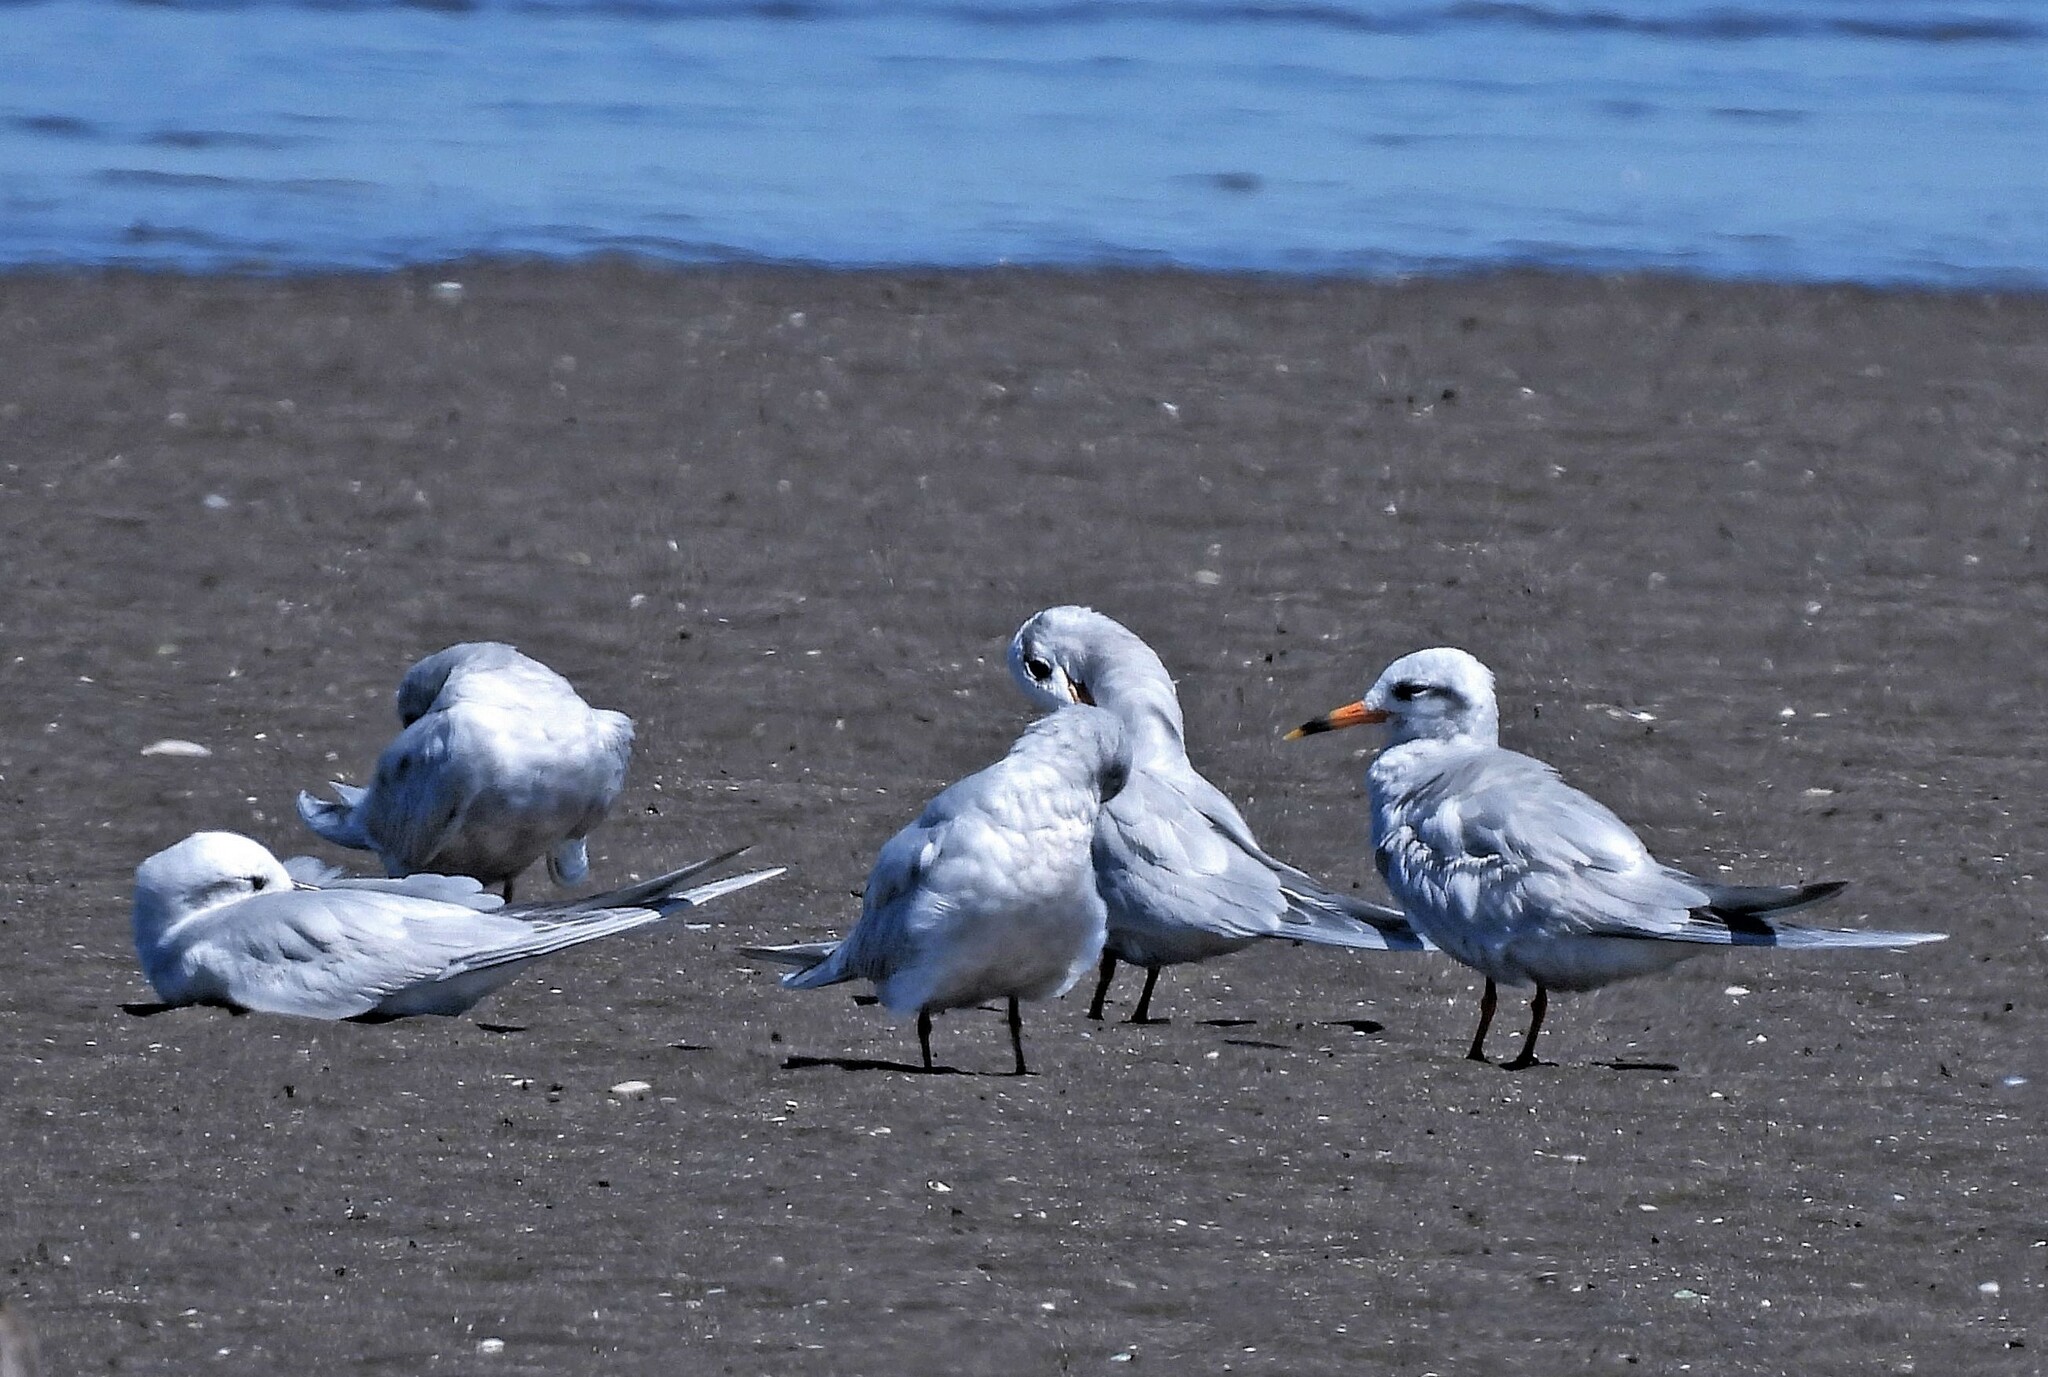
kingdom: Animalia
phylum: Chordata
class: Aves
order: Charadriiformes
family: Laridae
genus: Sterna
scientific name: Sterna trudeaui
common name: Snowy-crowned tern
